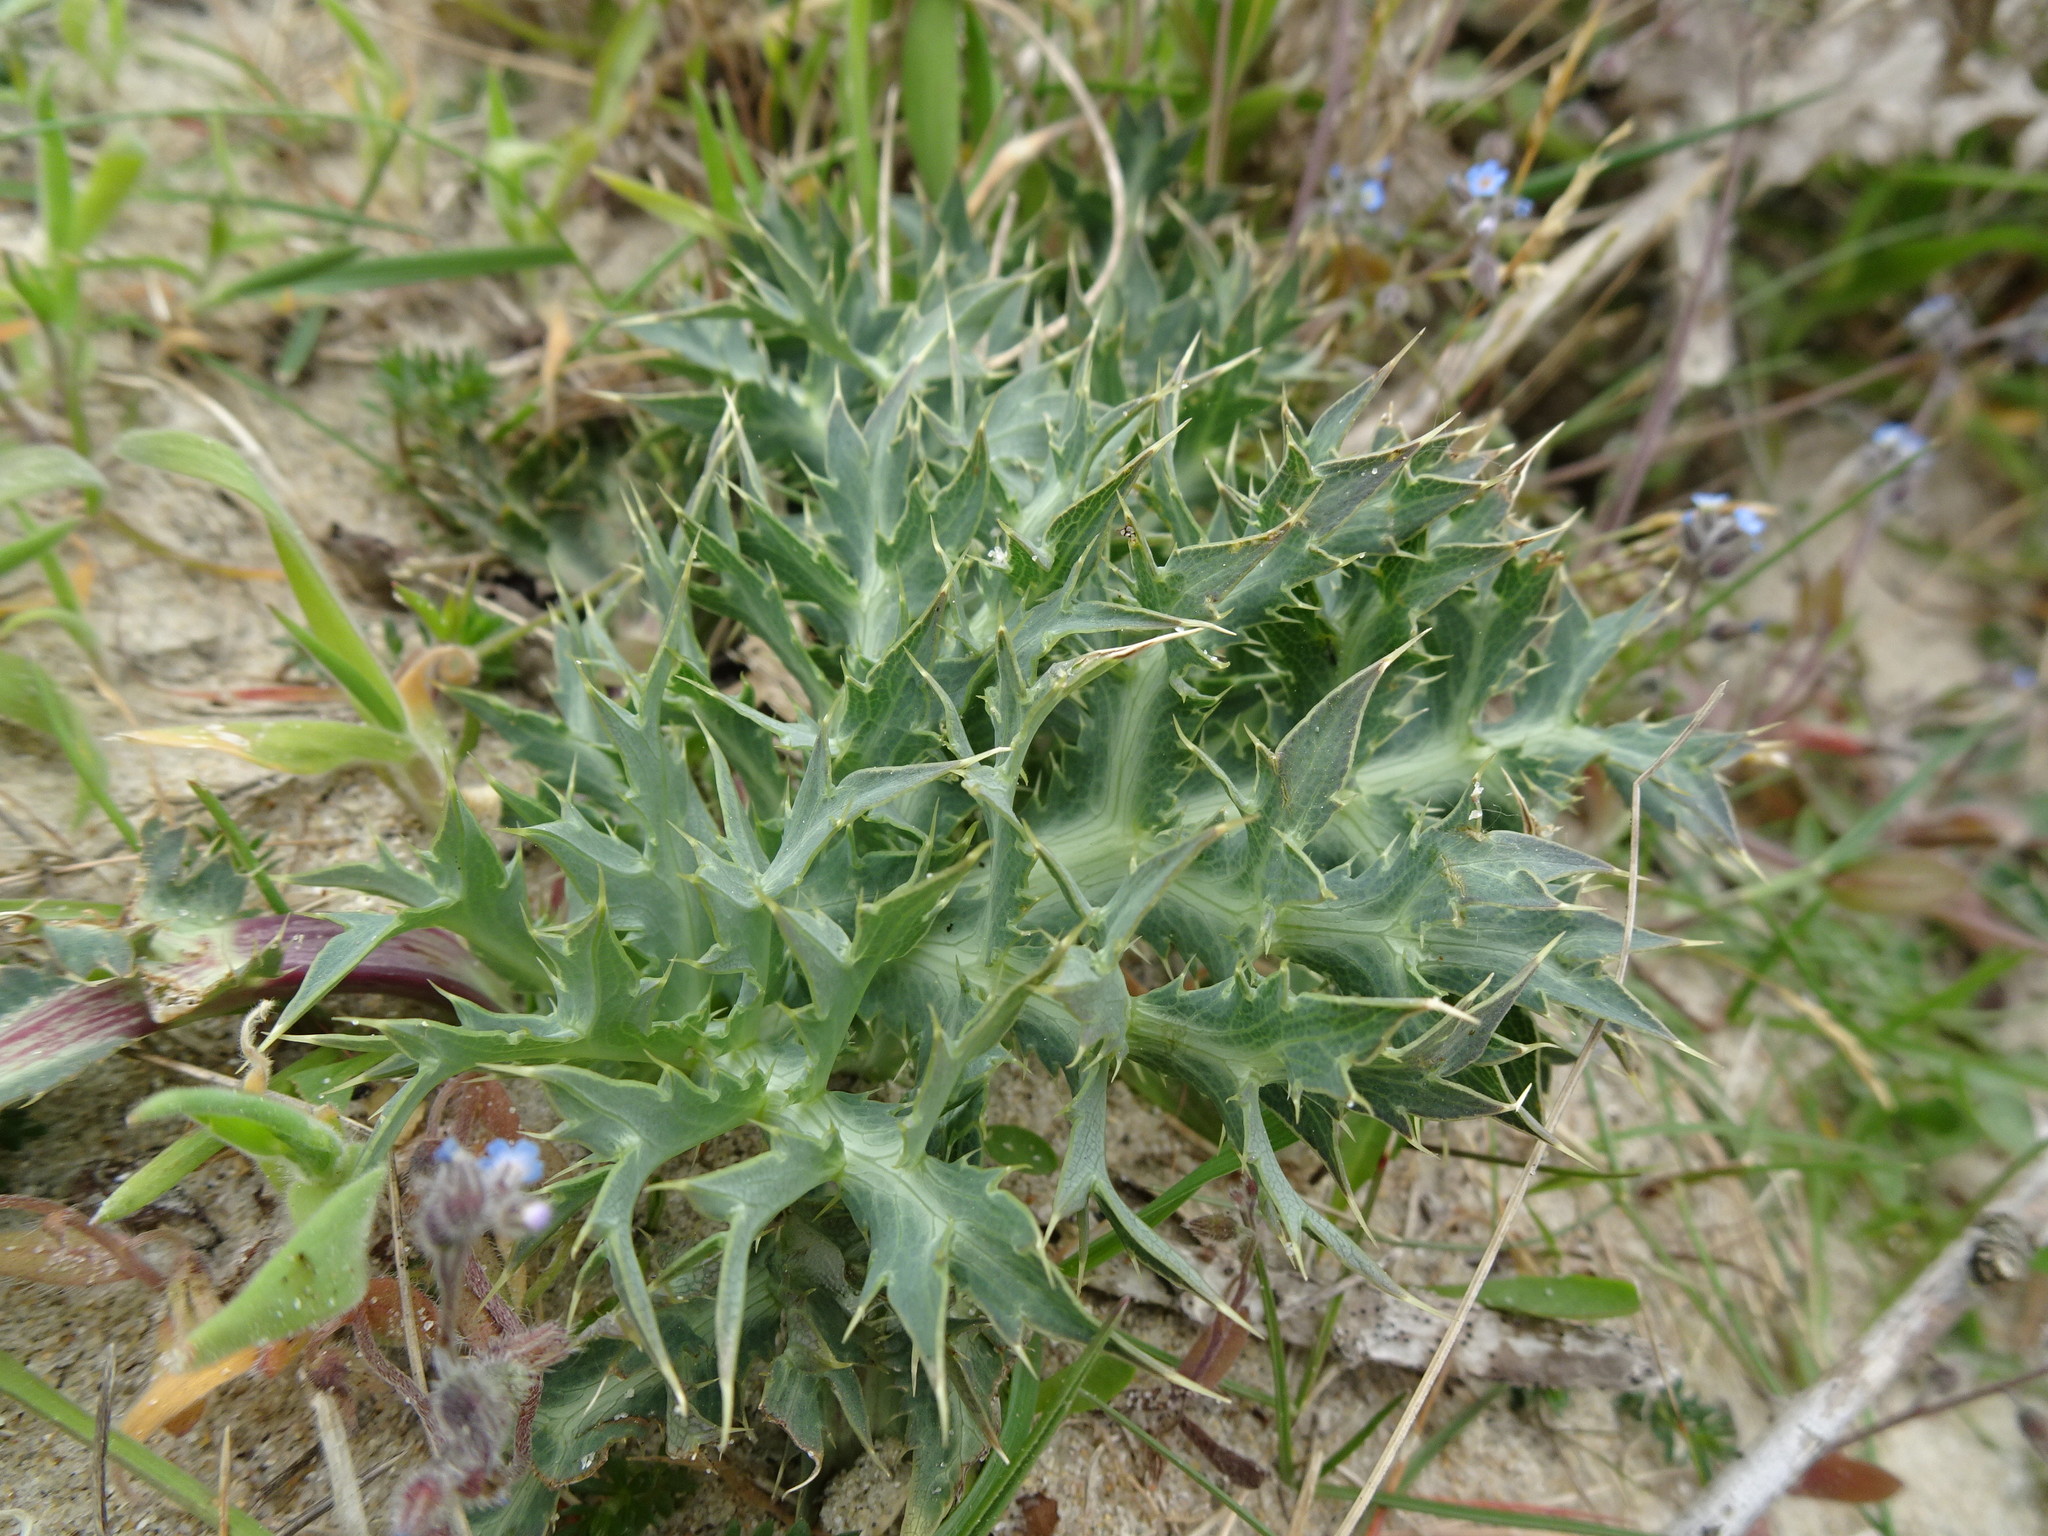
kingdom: Plantae
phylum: Tracheophyta
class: Magnoliopsida
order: Apiales
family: Apiaceae
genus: Eryngium
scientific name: Eryngium campestre
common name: Field eryngo
